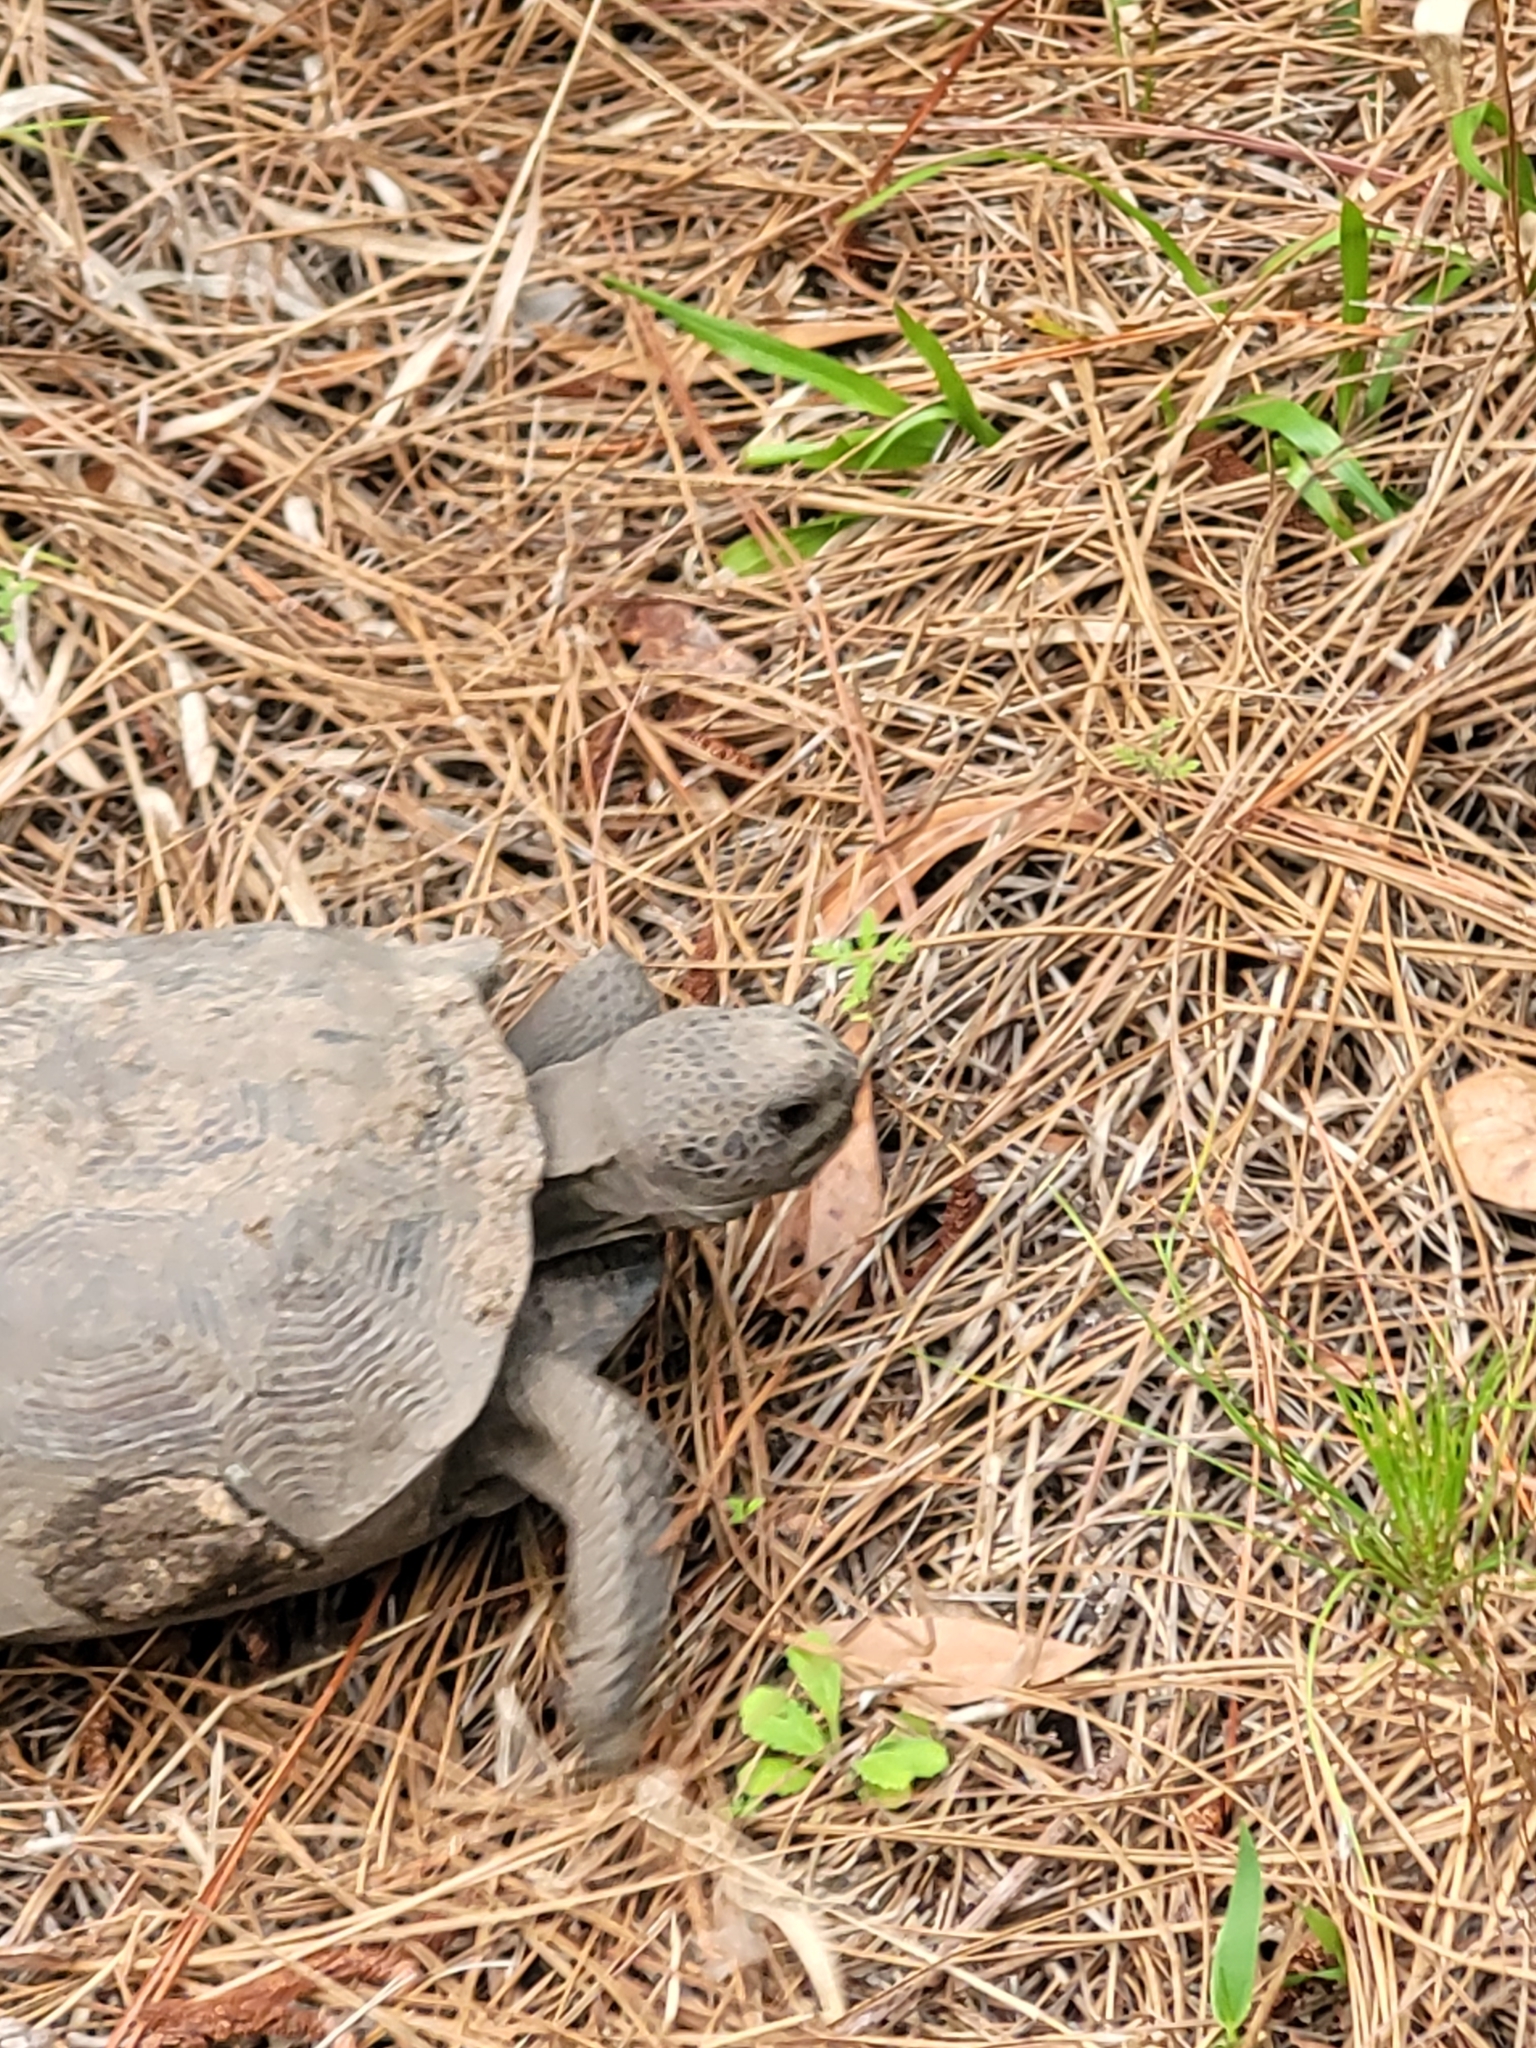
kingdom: Animalia
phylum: Chordata
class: Testudines
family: Testudinidae
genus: Gopherus
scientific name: Gopherus polyphemus
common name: Florida gopher tortoise
